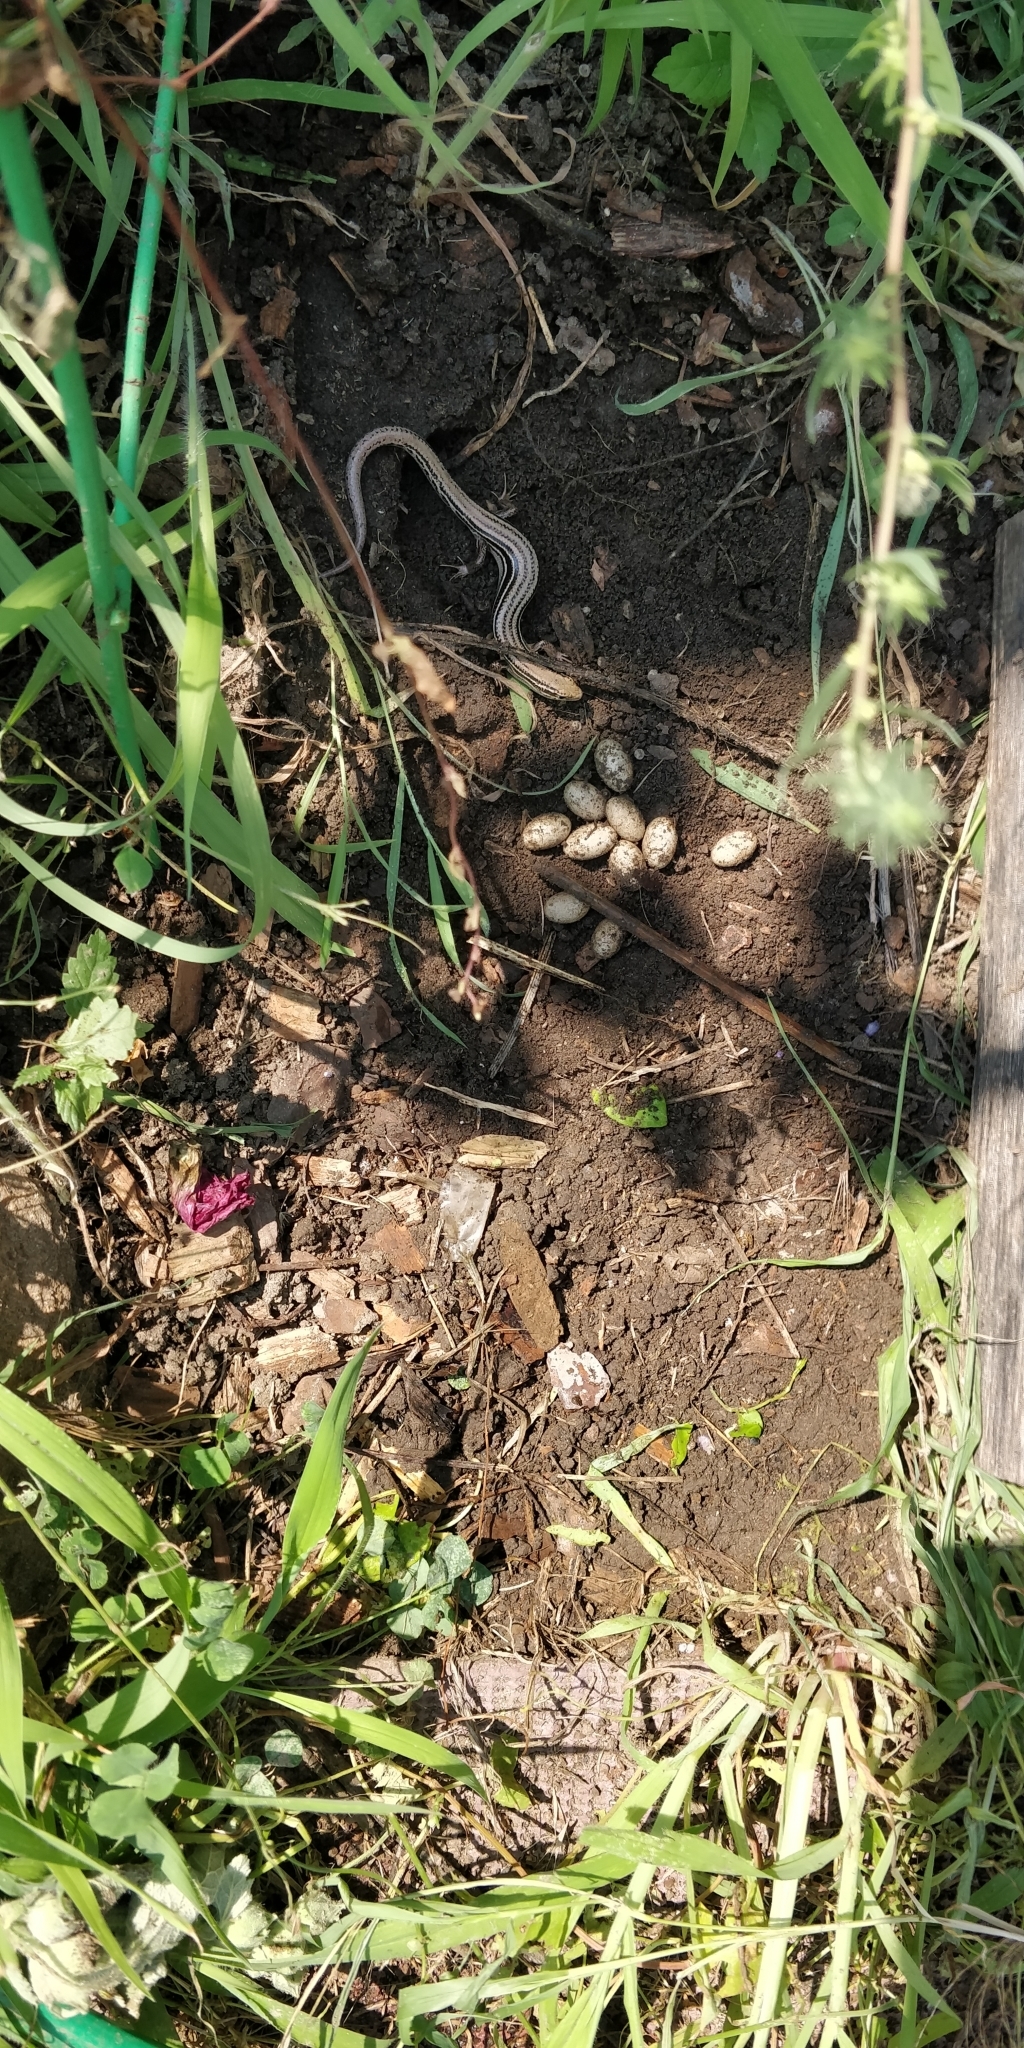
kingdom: Animalia
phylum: Chordata
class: Squamata
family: Scincidae
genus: Plestiodon
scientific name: Plestiodon septentrionalis
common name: Northern prairie skink
